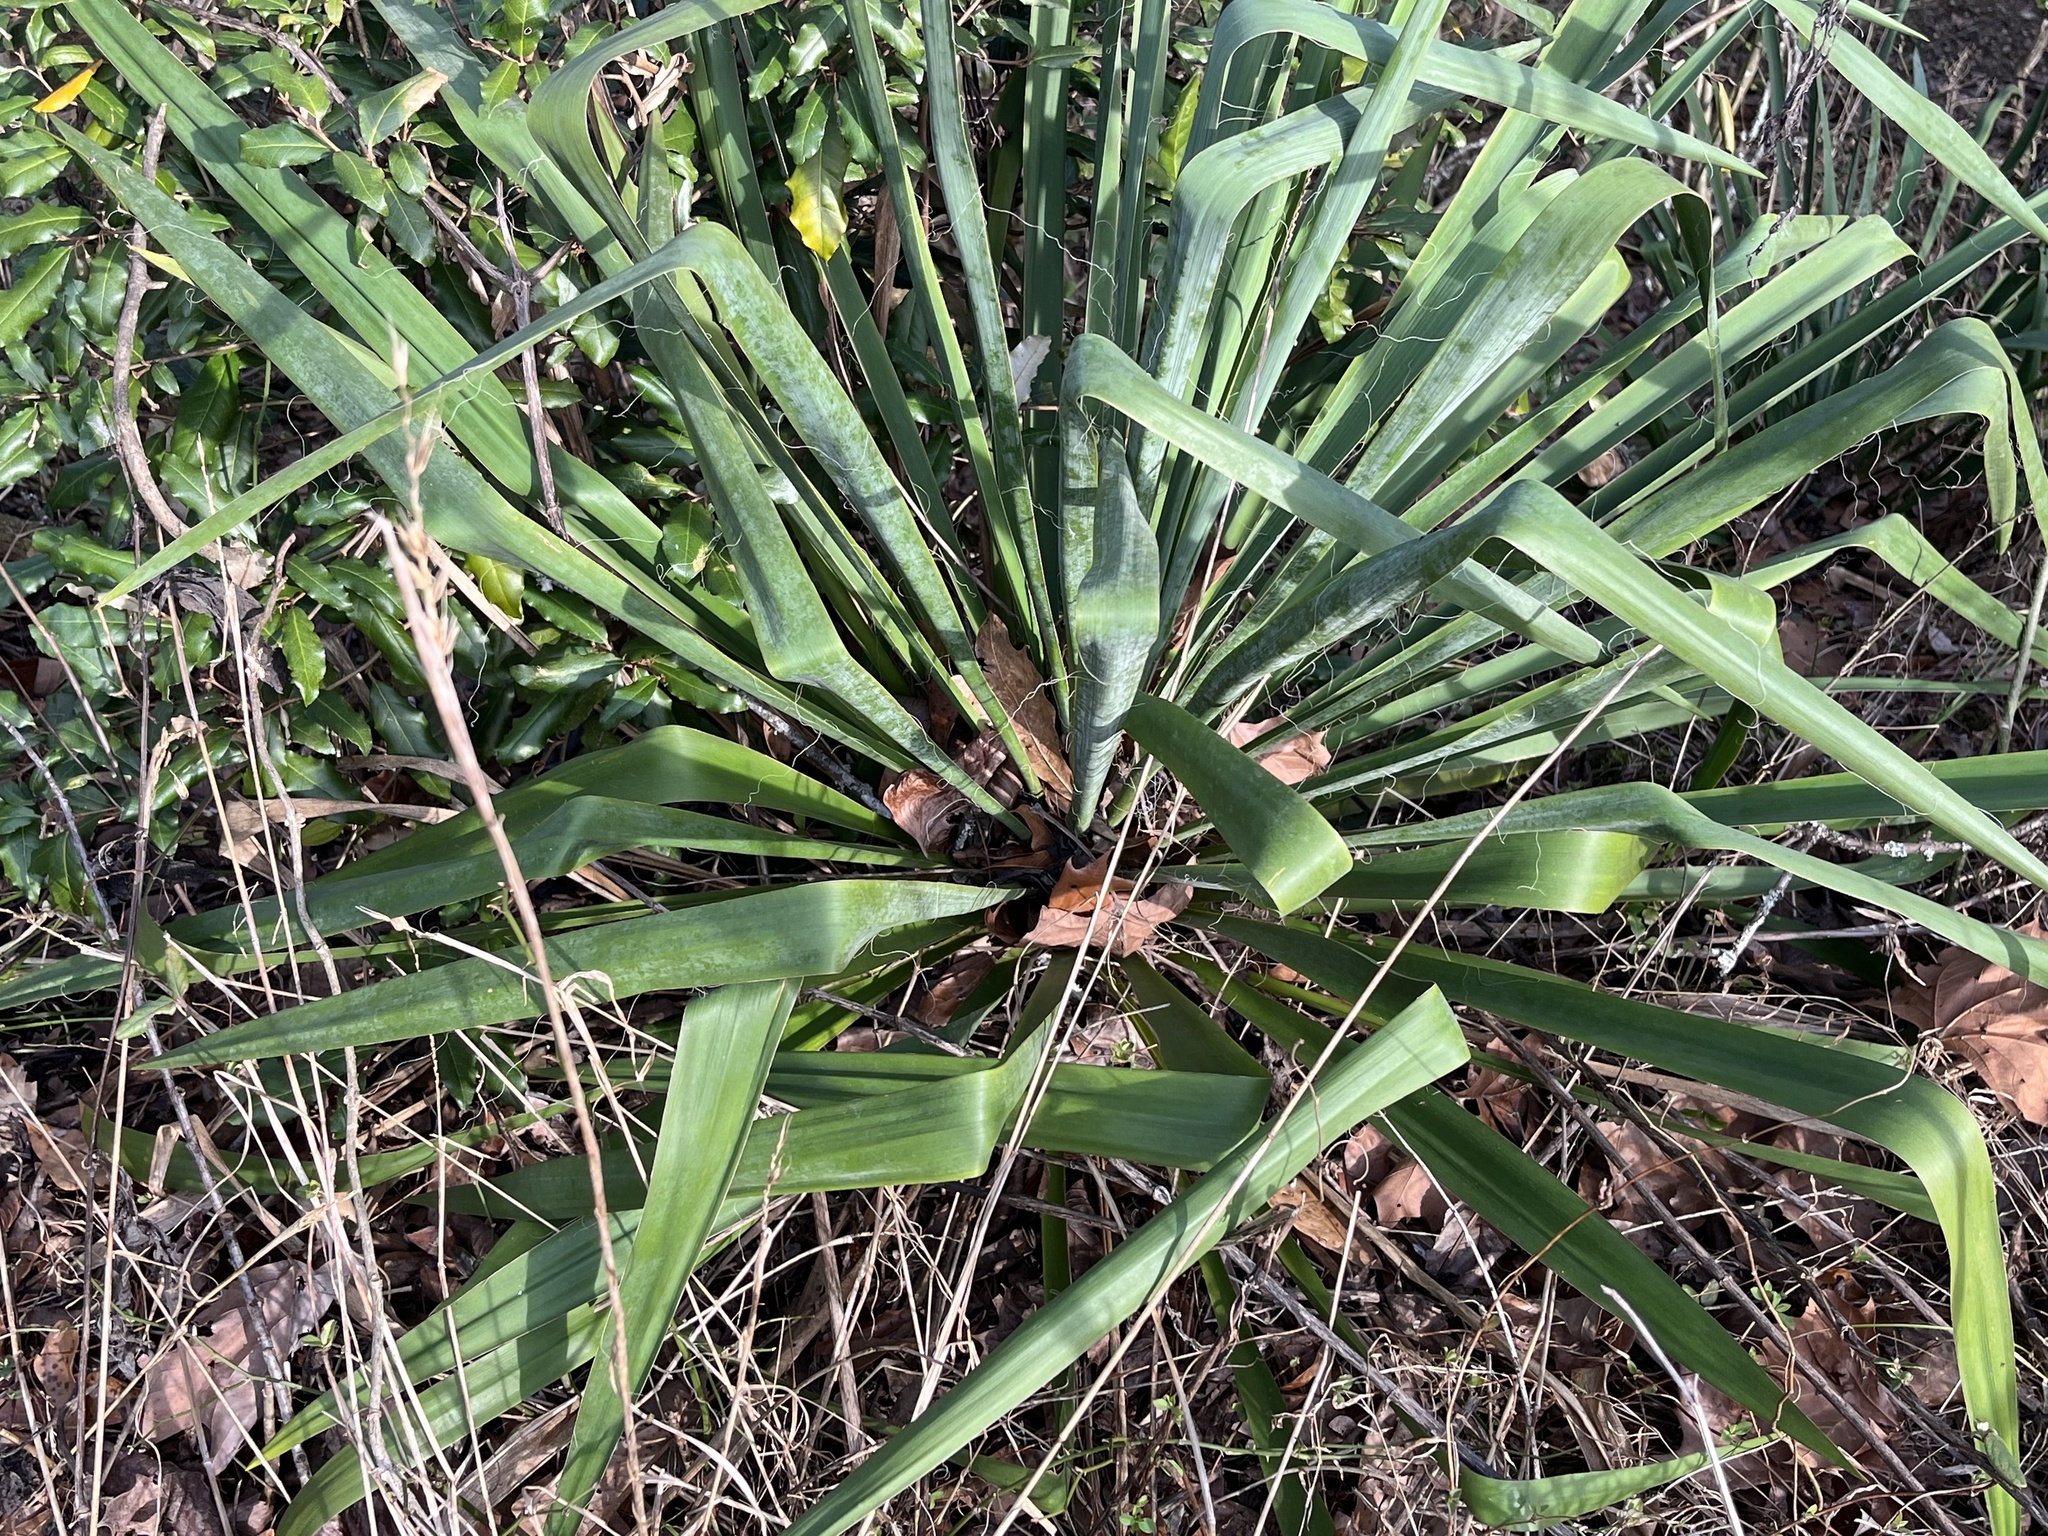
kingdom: Plantae
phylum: Tracheophyta
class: Liliopsida
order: Asparagales
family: Asparagaceae
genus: Yucca
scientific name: Yucca filamentosa
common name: Adam's-needle
